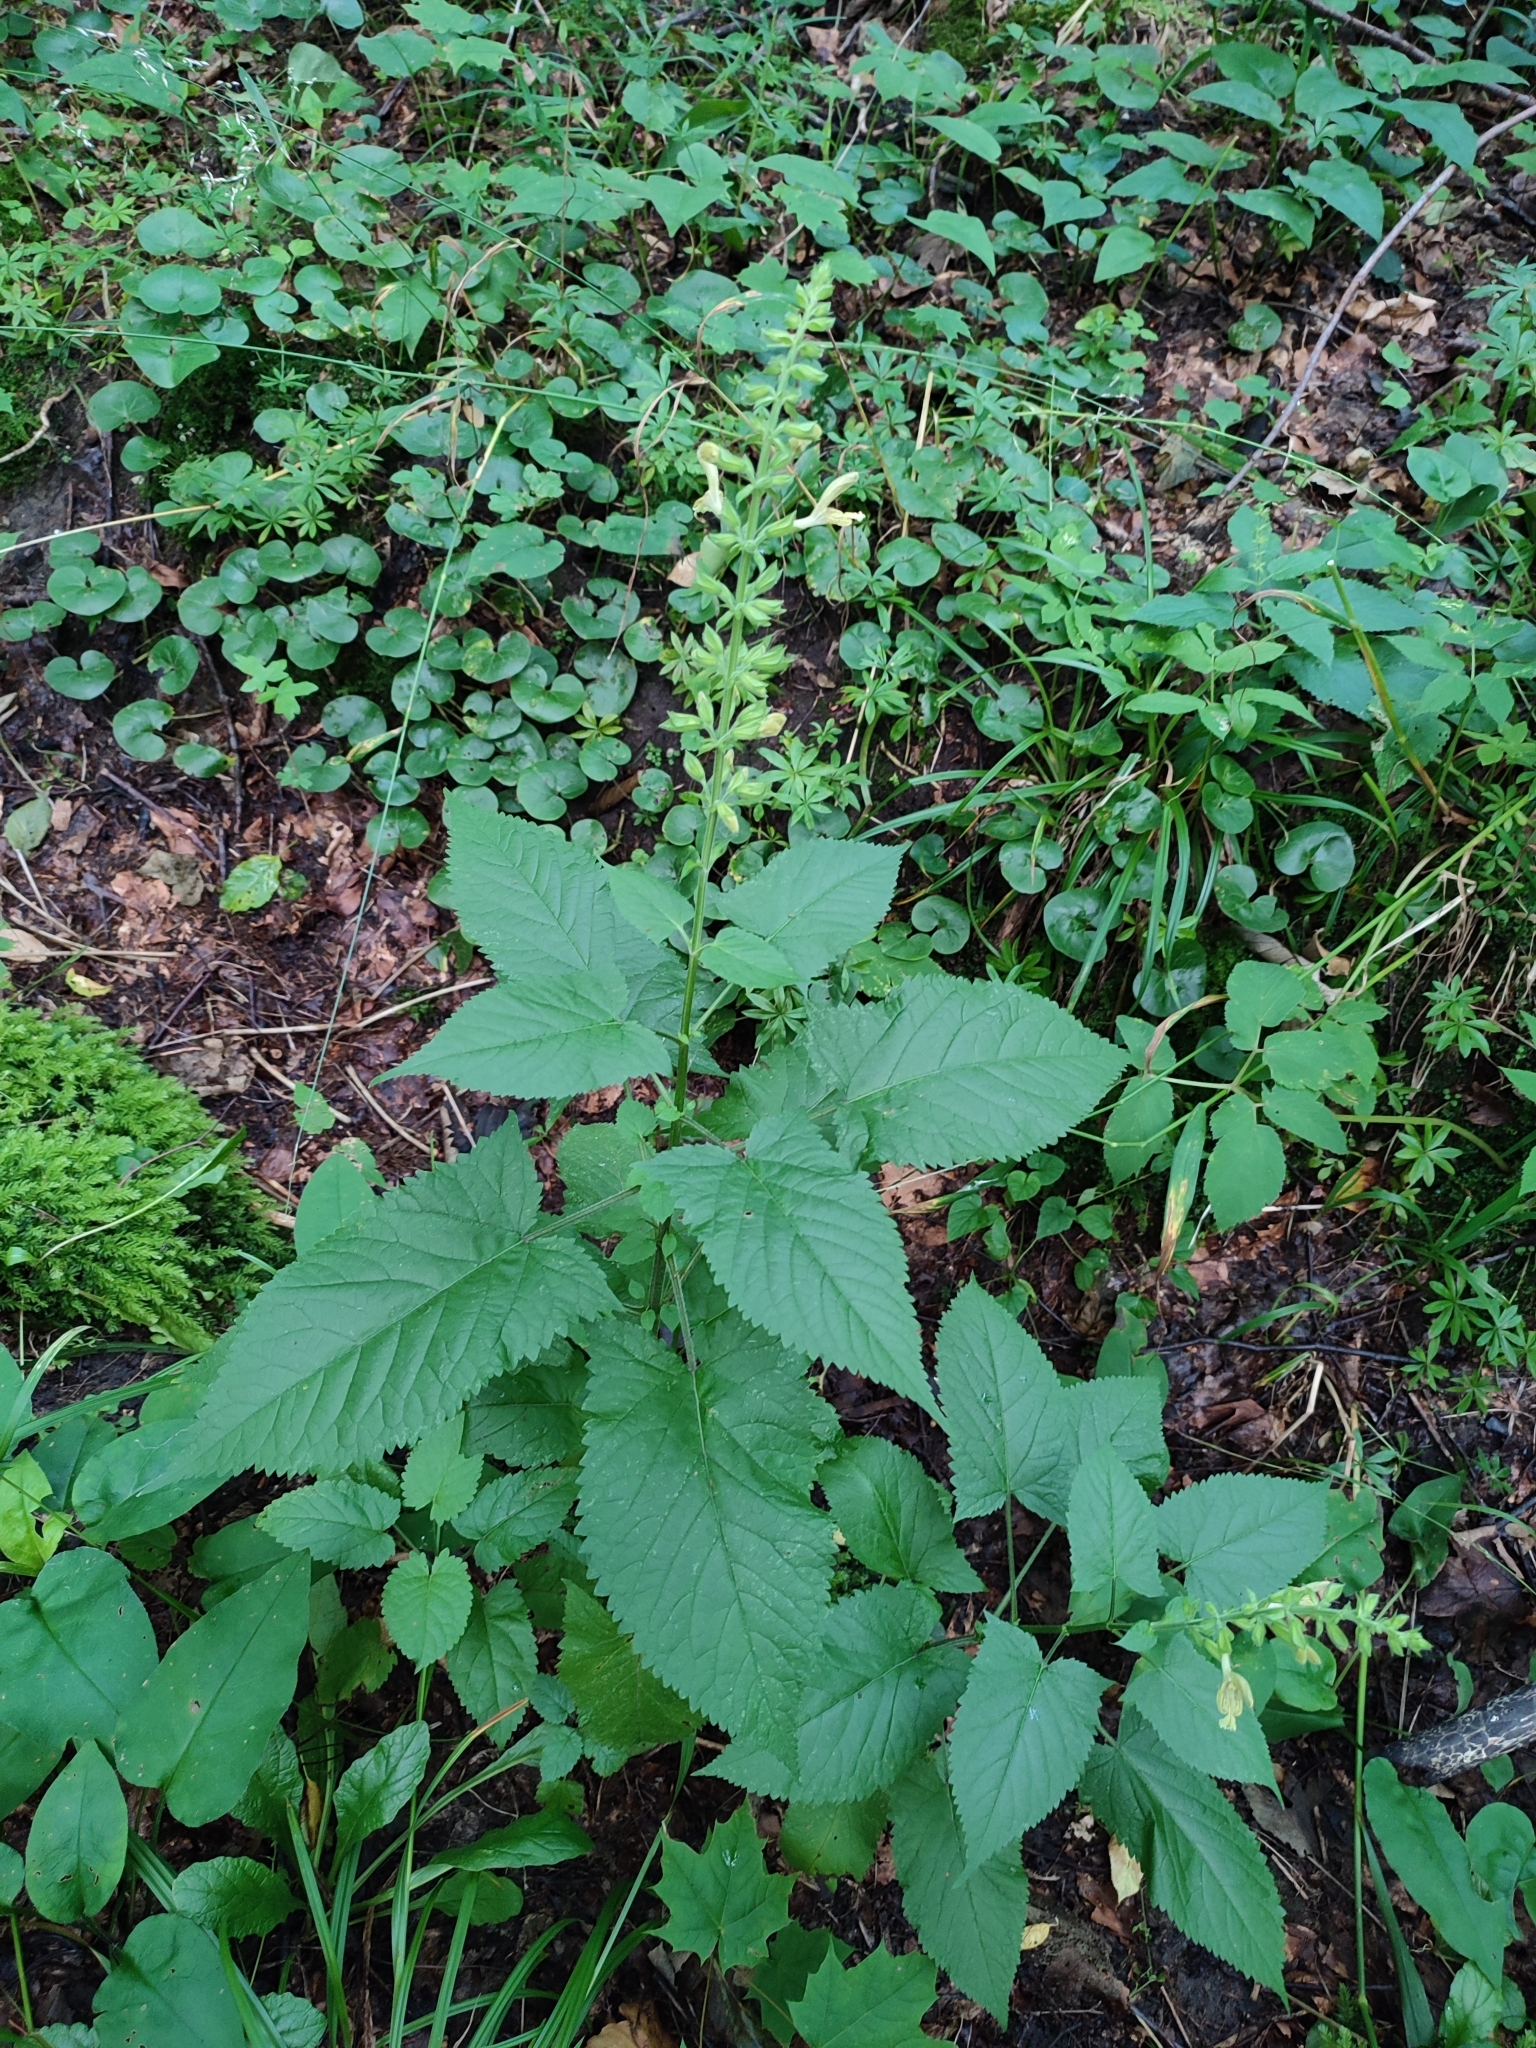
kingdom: Plantae
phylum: Tracheophyta
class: Magnoliopsida
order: Lamiales
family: Lamiaceae
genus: Salvia
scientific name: Salvia glutinosa
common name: Sticky clary
